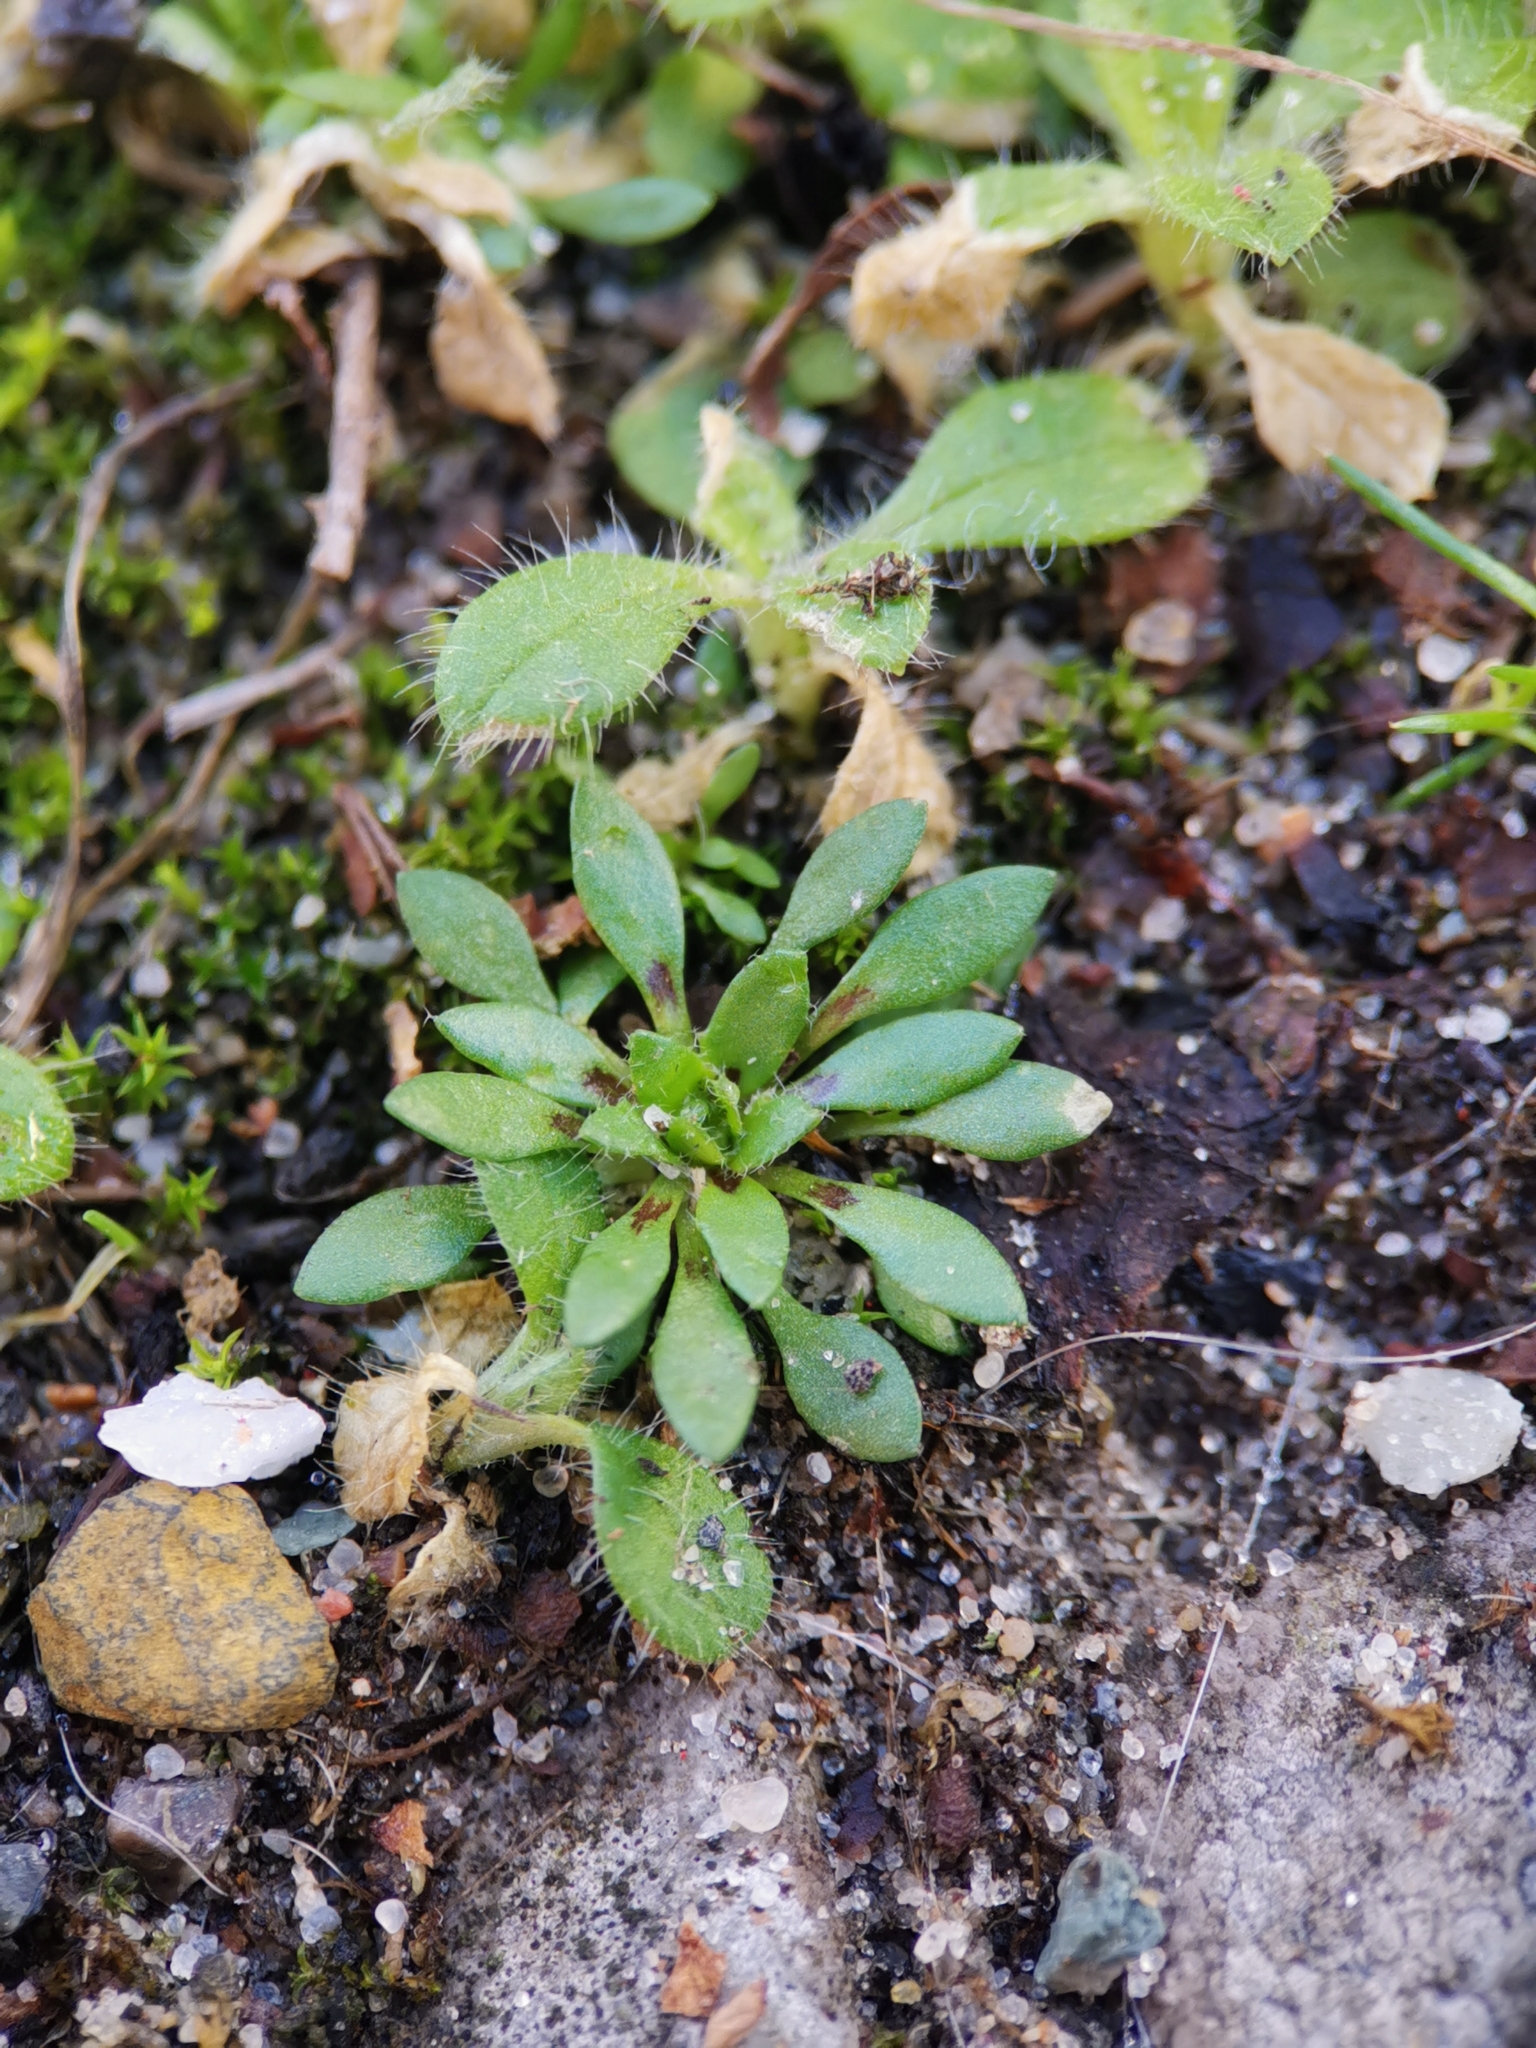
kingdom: Plantae
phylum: Tracheophyta
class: Magnoliopsida
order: Brassicales
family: Brassicaceae
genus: Draba
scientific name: Draba verna
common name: Spring draba
